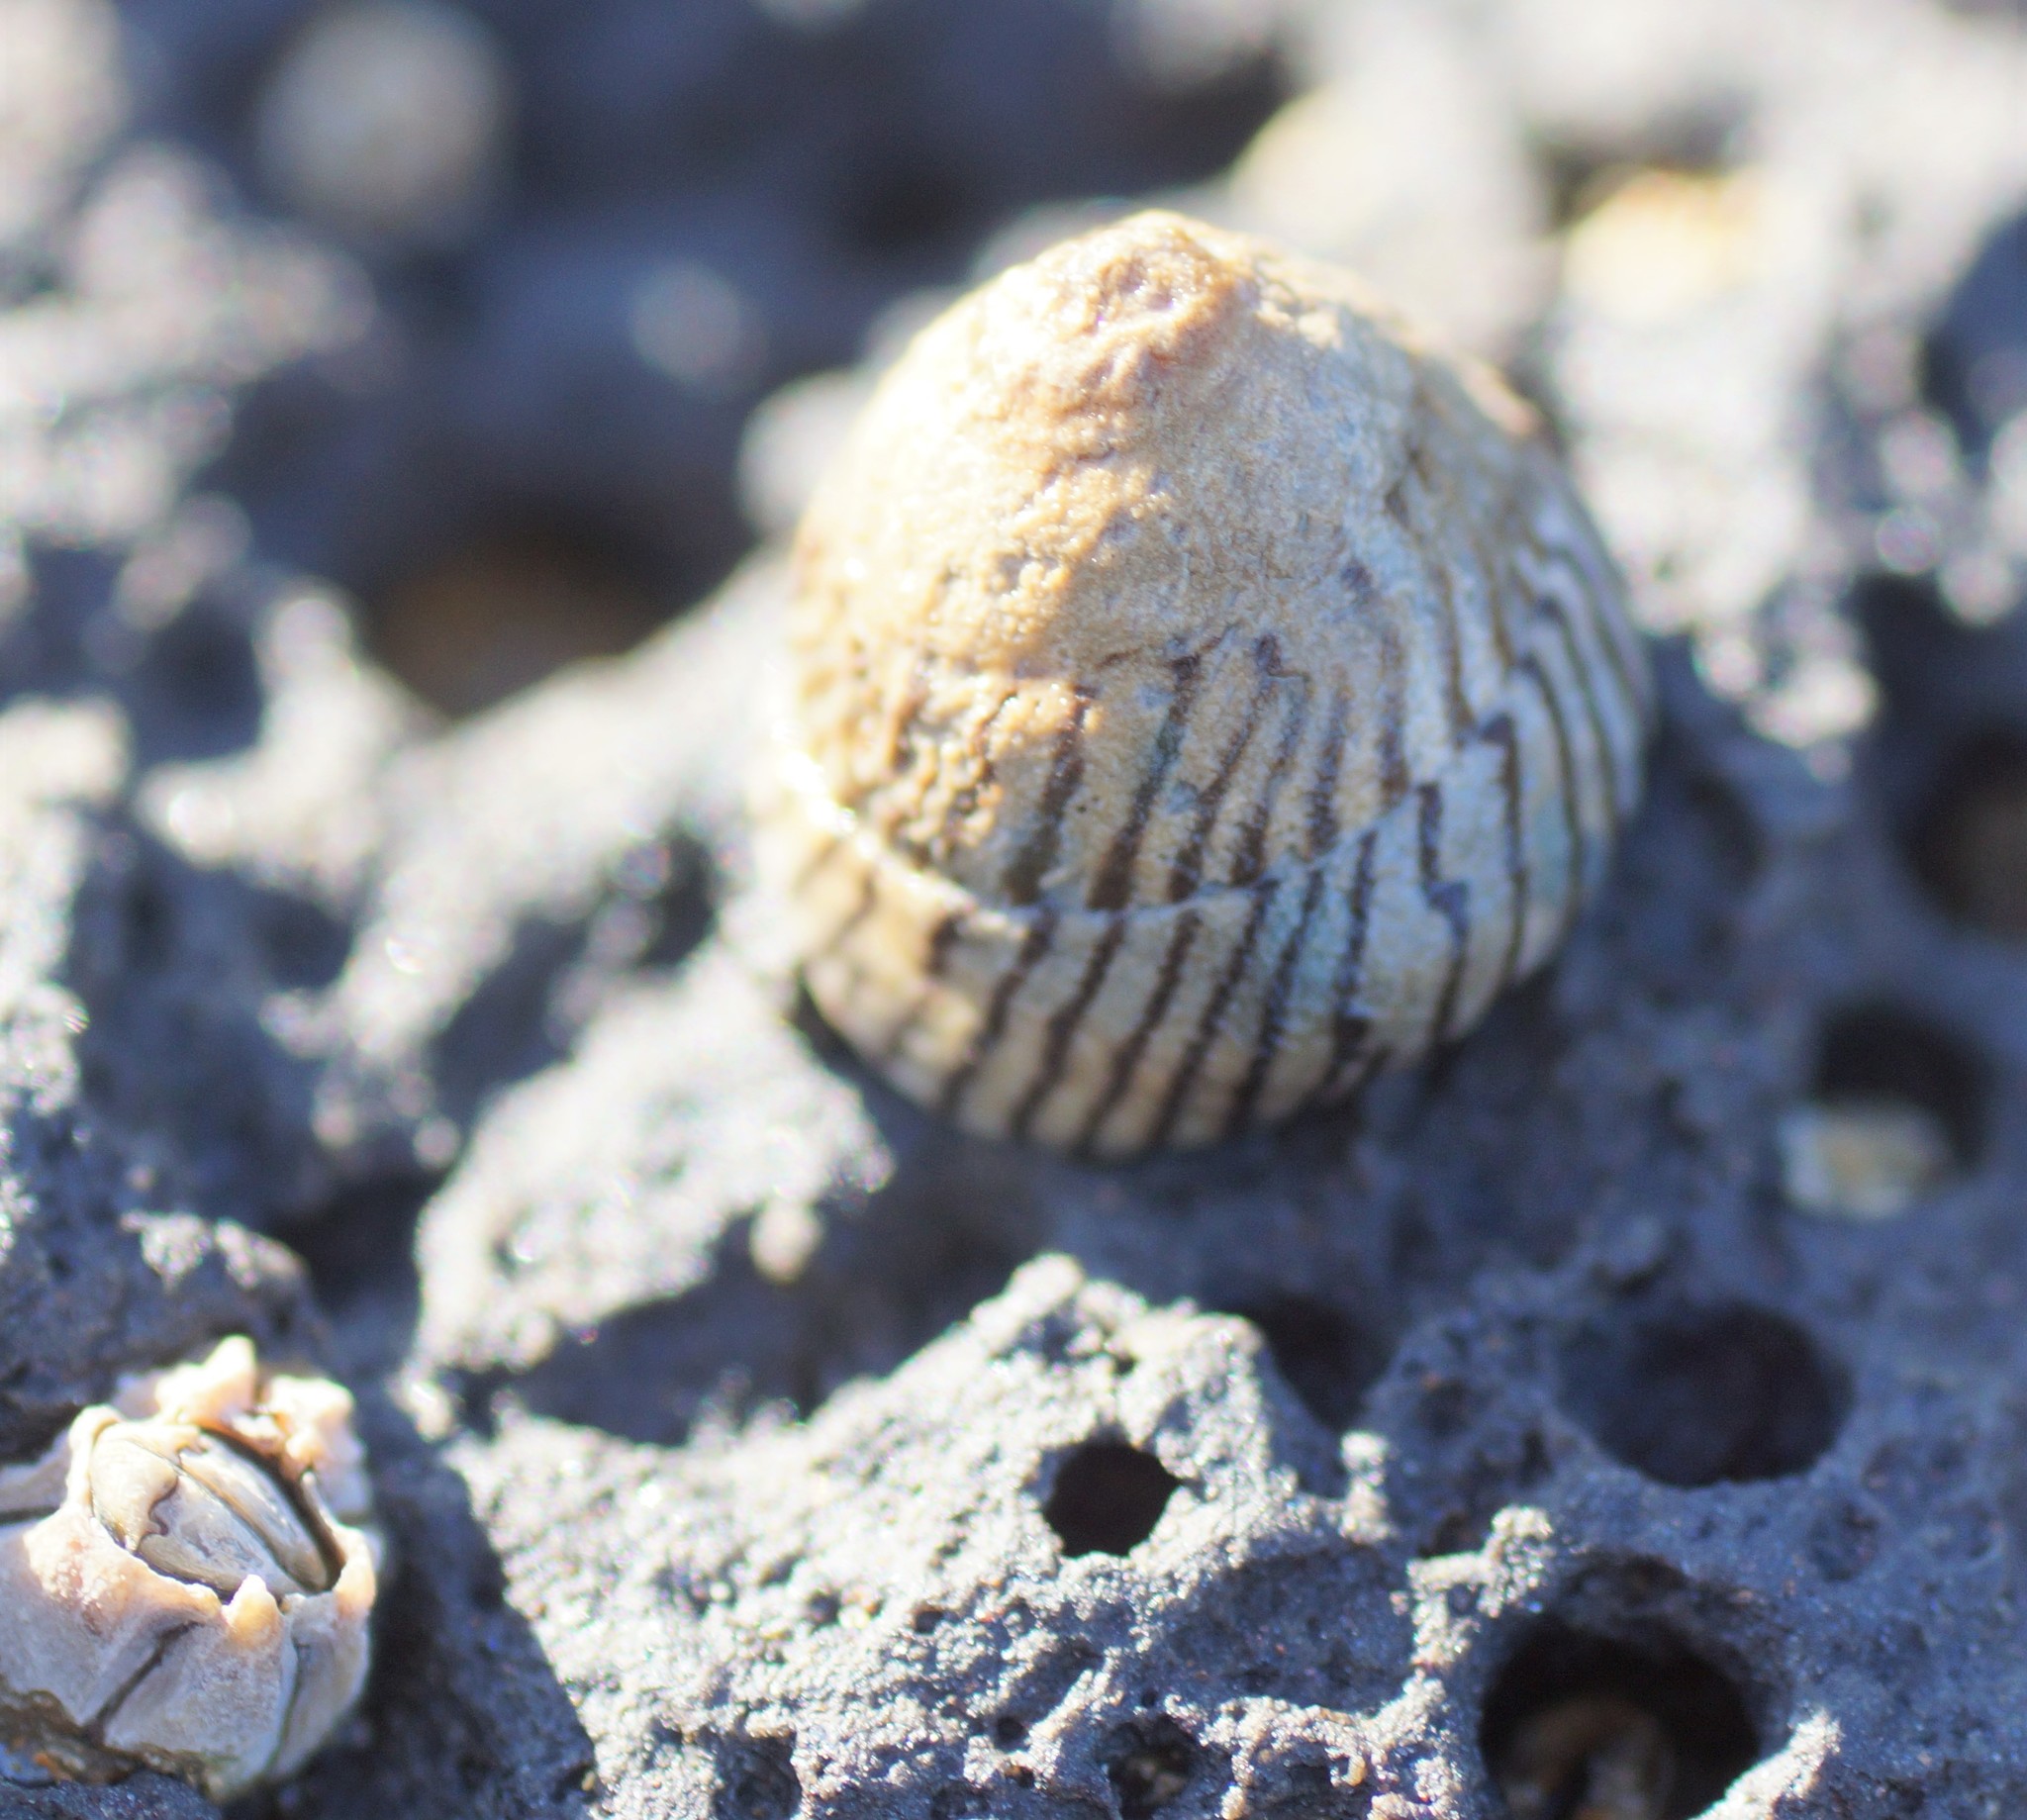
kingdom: Animalia
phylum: Mollusca
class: Gastropoda
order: Littorinimorpha
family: Littorinidae
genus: Bembicium
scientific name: Bembicium nanum
